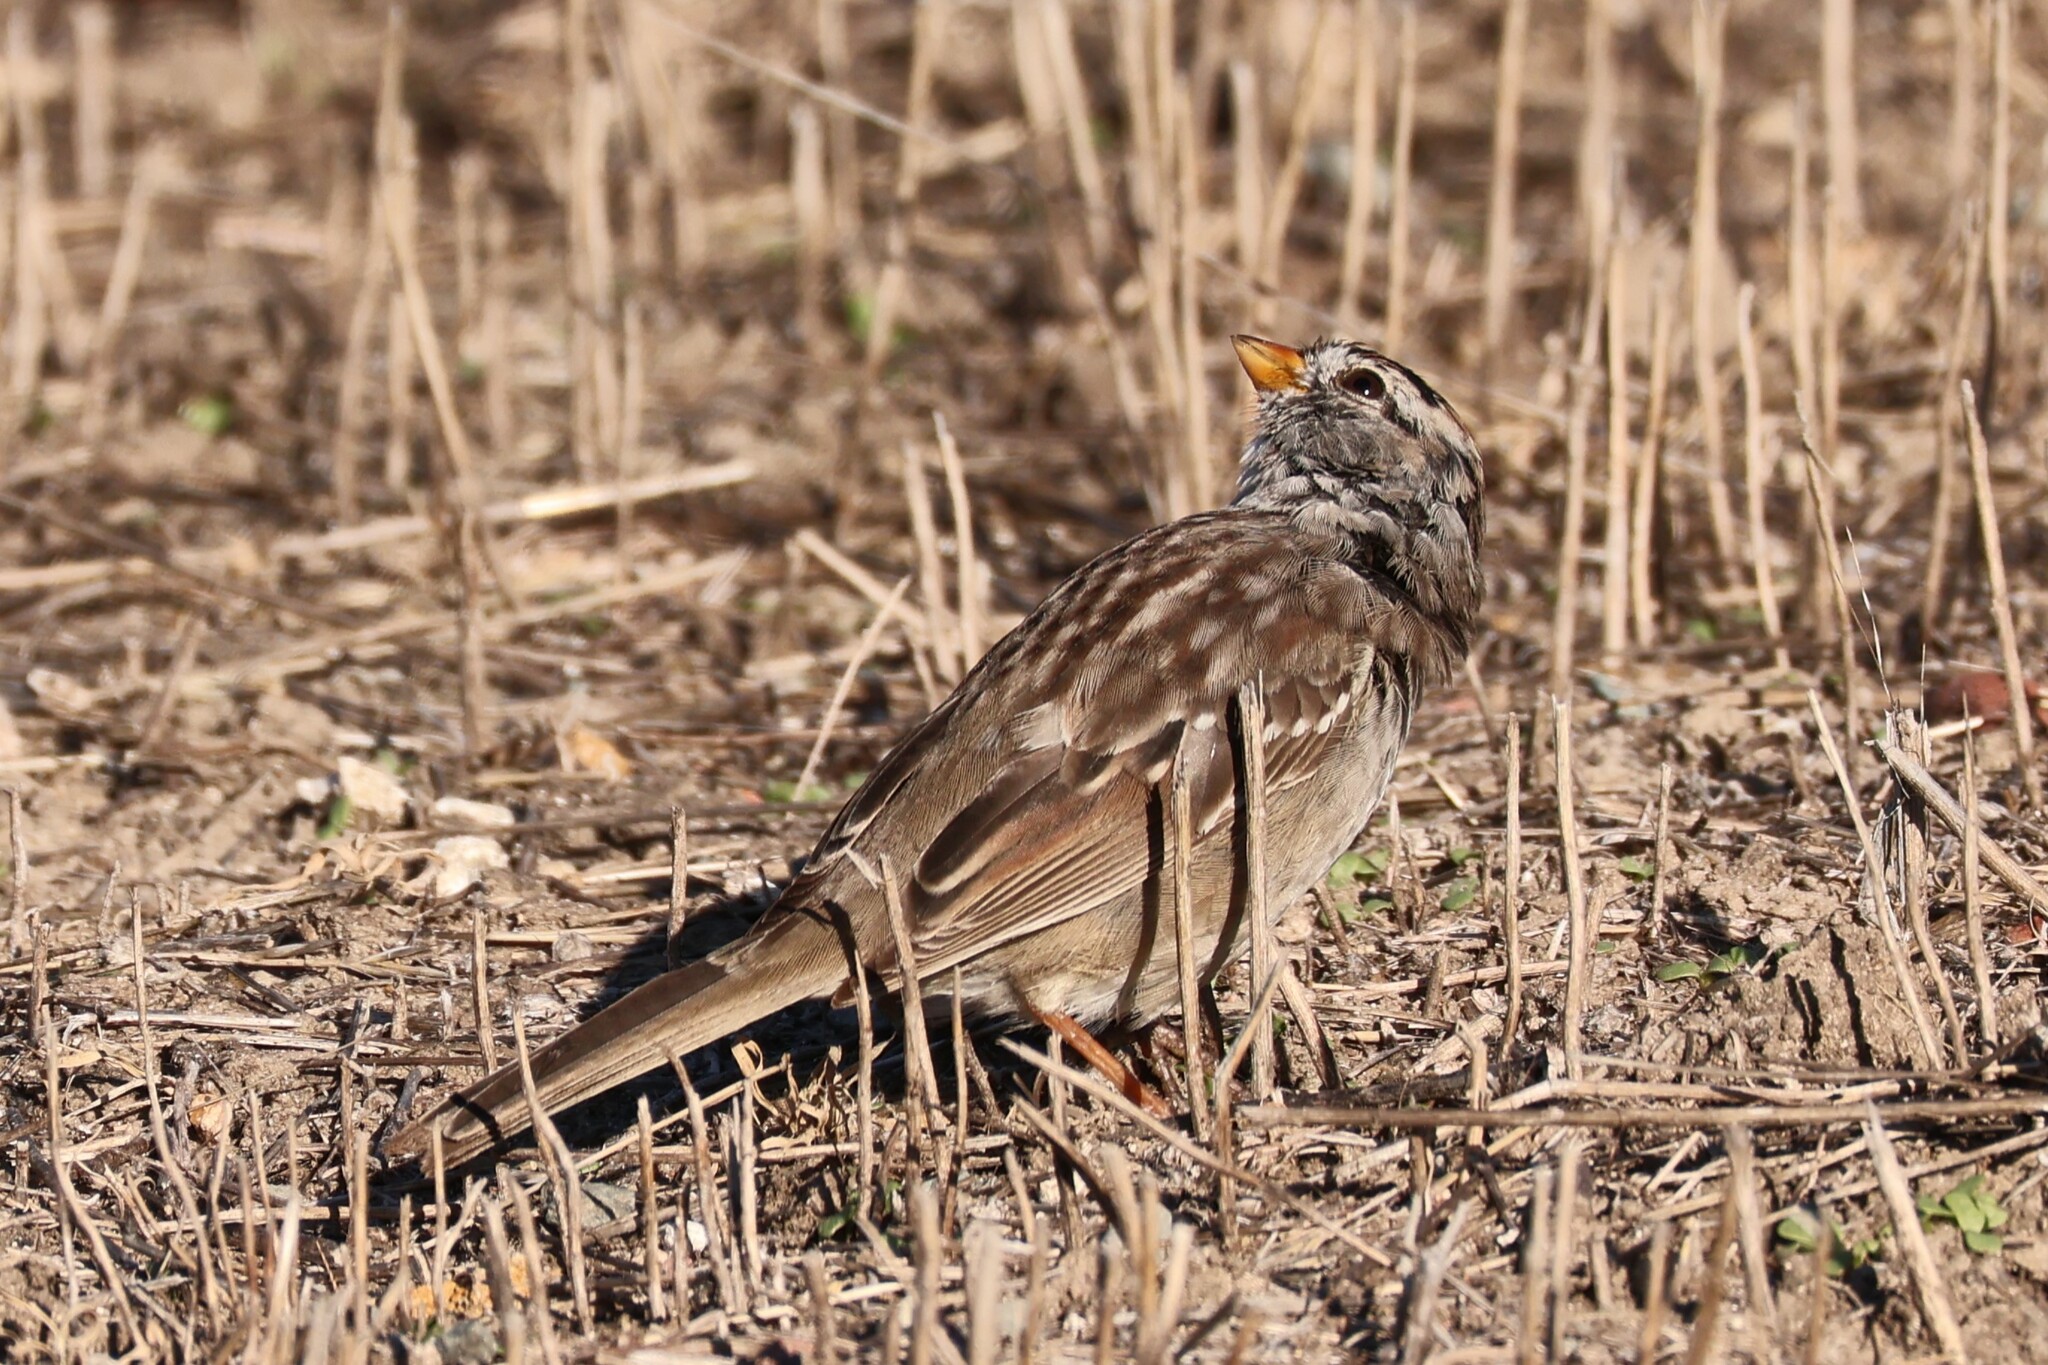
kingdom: Animalia
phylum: Chordata
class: Aves
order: Passeriformes
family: Passerellidae
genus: Zonotrichia
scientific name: Zonotrichia leucophrys
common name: White-crowned sparrow
